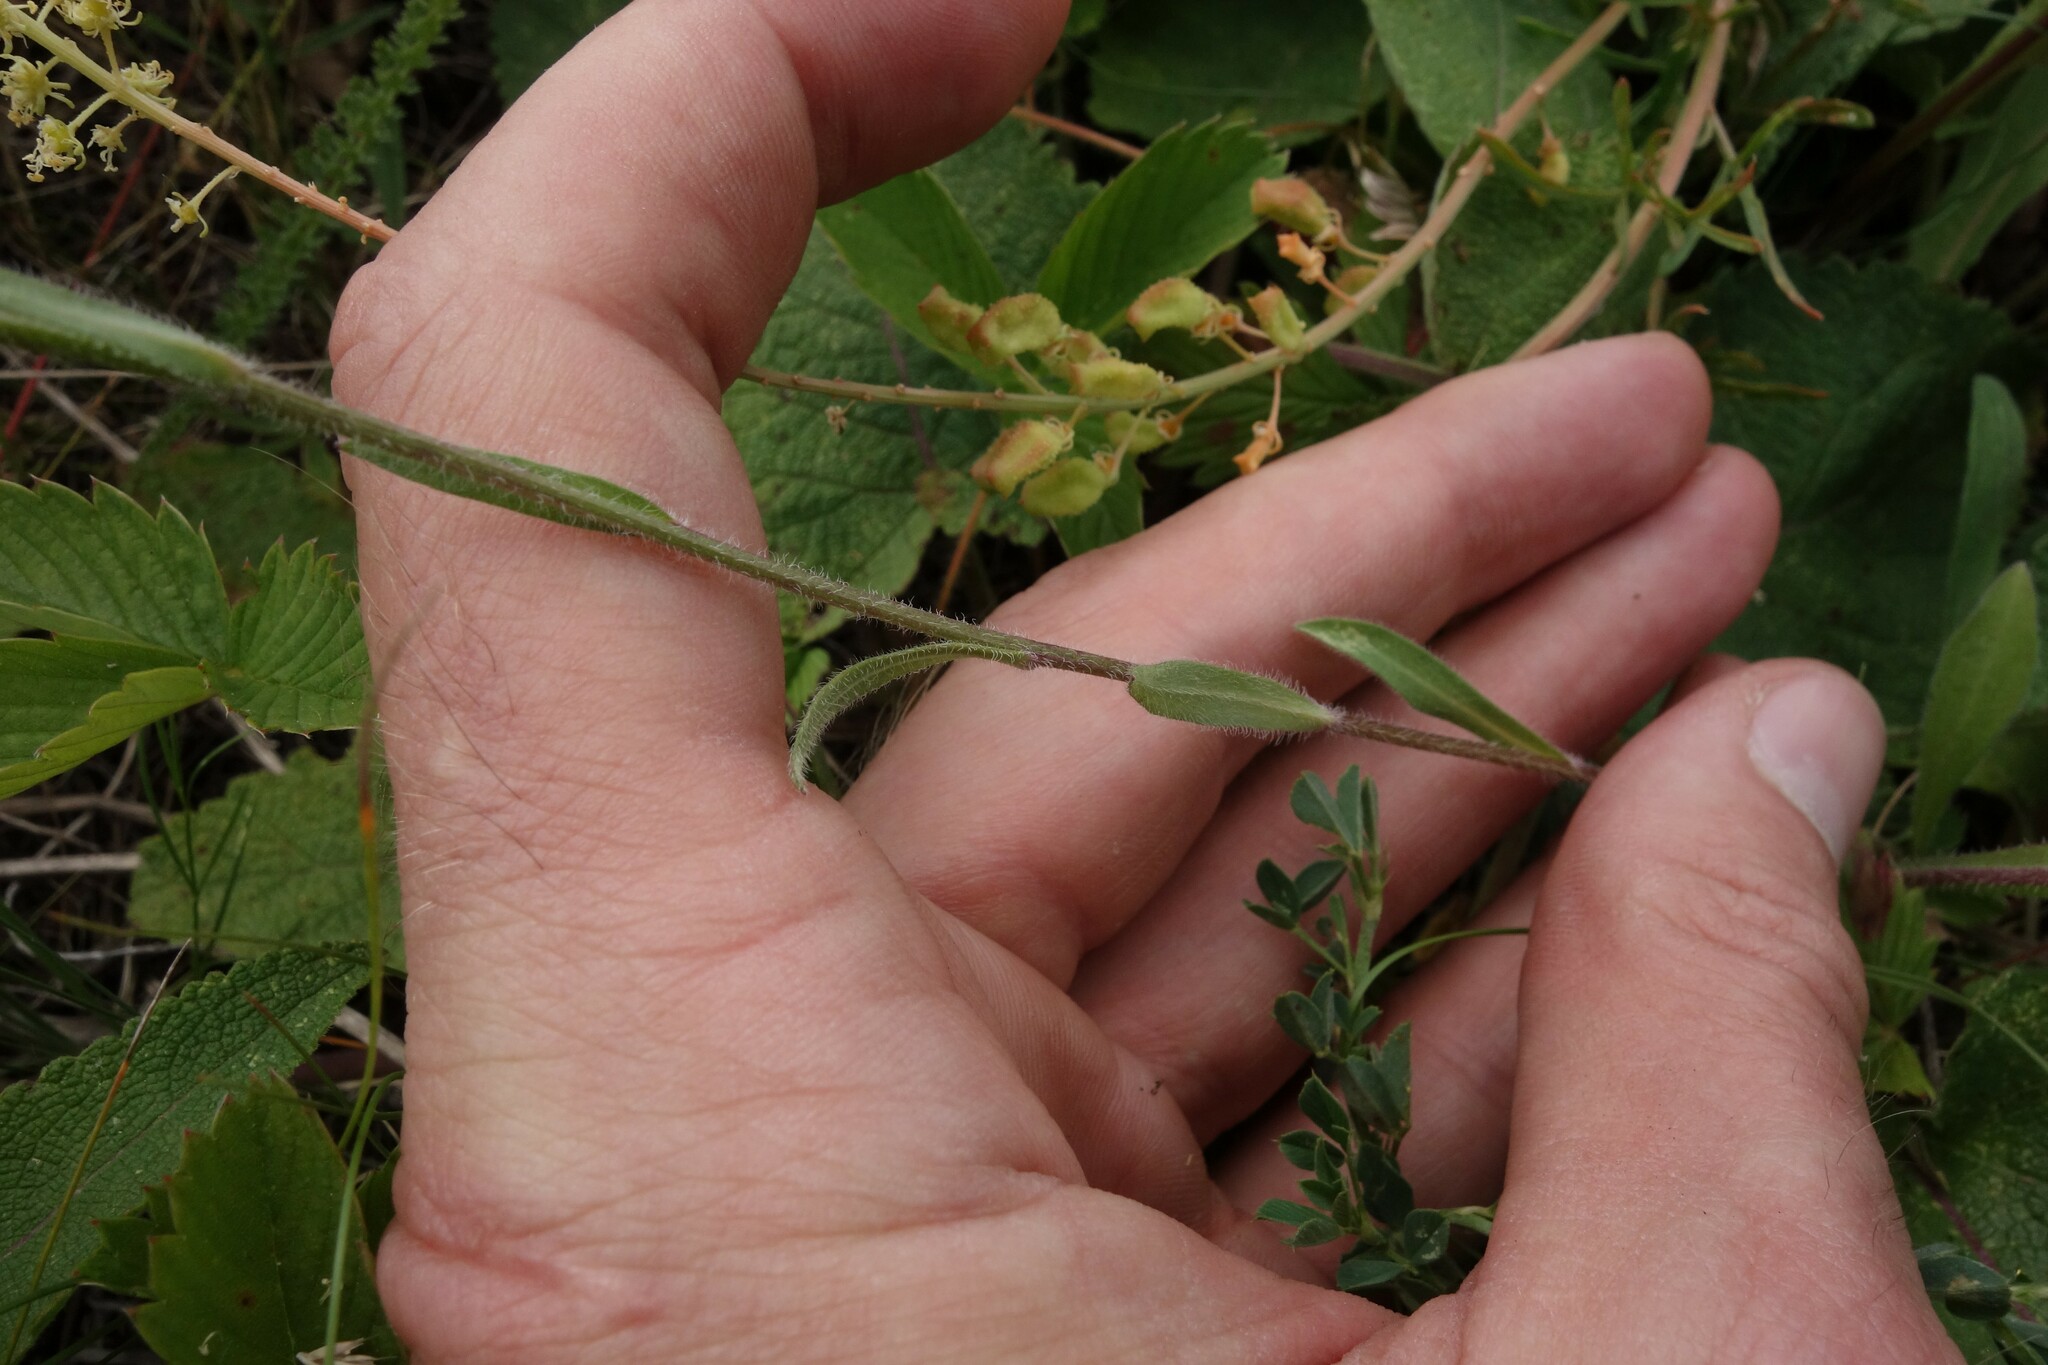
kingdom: Plantae
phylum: Tracheophyta
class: Magnoliopsida
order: Asterales
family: Asteraceae
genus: Erigeron
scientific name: Erigeron acris
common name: Blue fleabane
